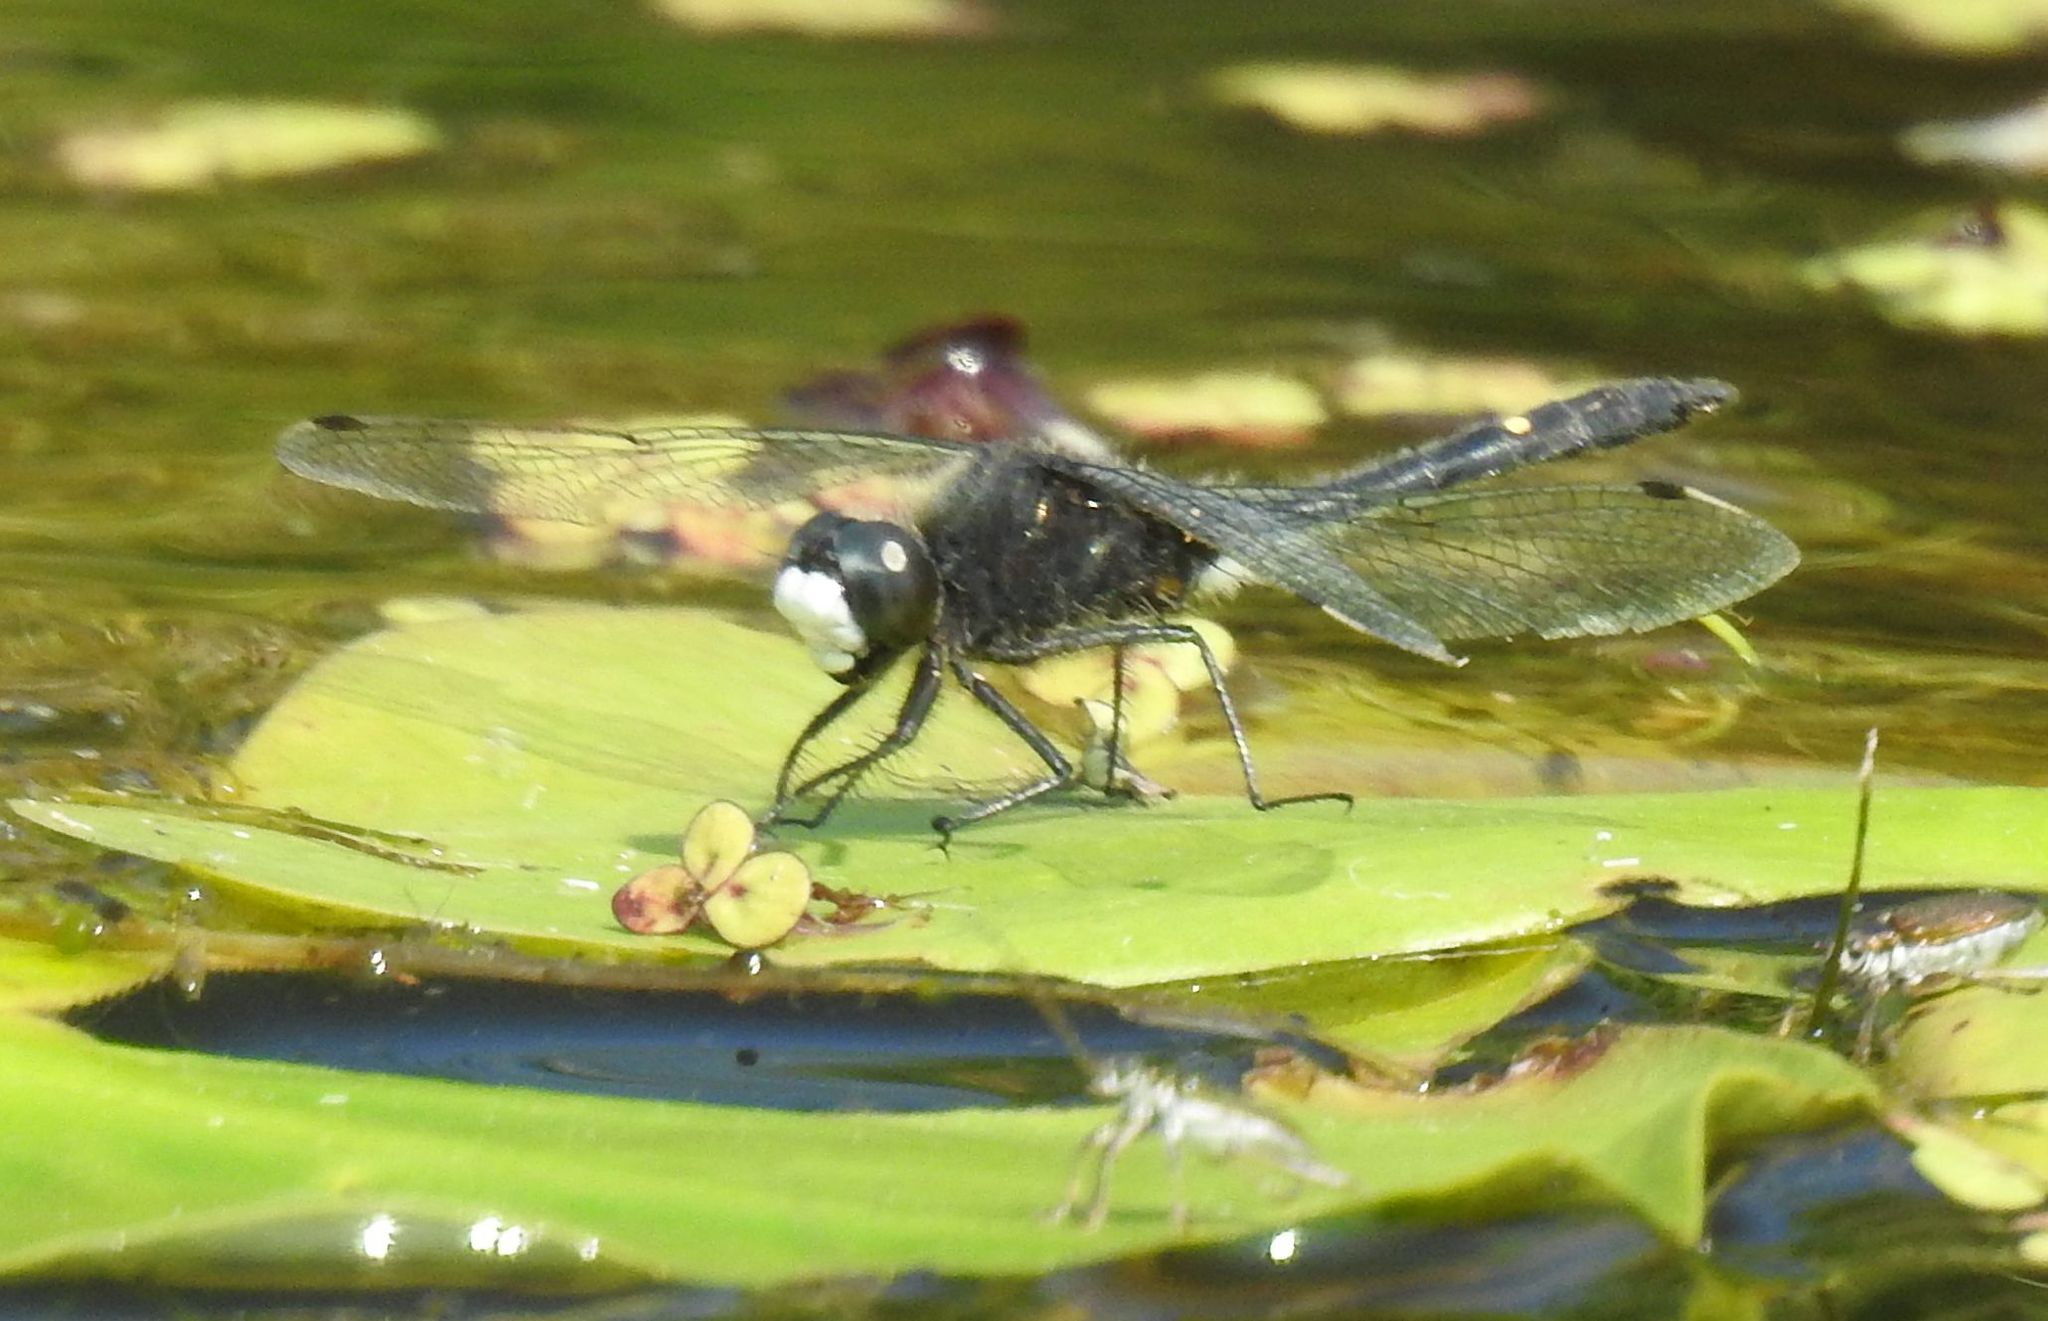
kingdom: Animalia
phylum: Arthropoda
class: Insecta
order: Odonata
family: Libellulidae
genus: Leucorrhinia
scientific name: Leucorrhinia intacta
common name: Dot-tailed whiteface
